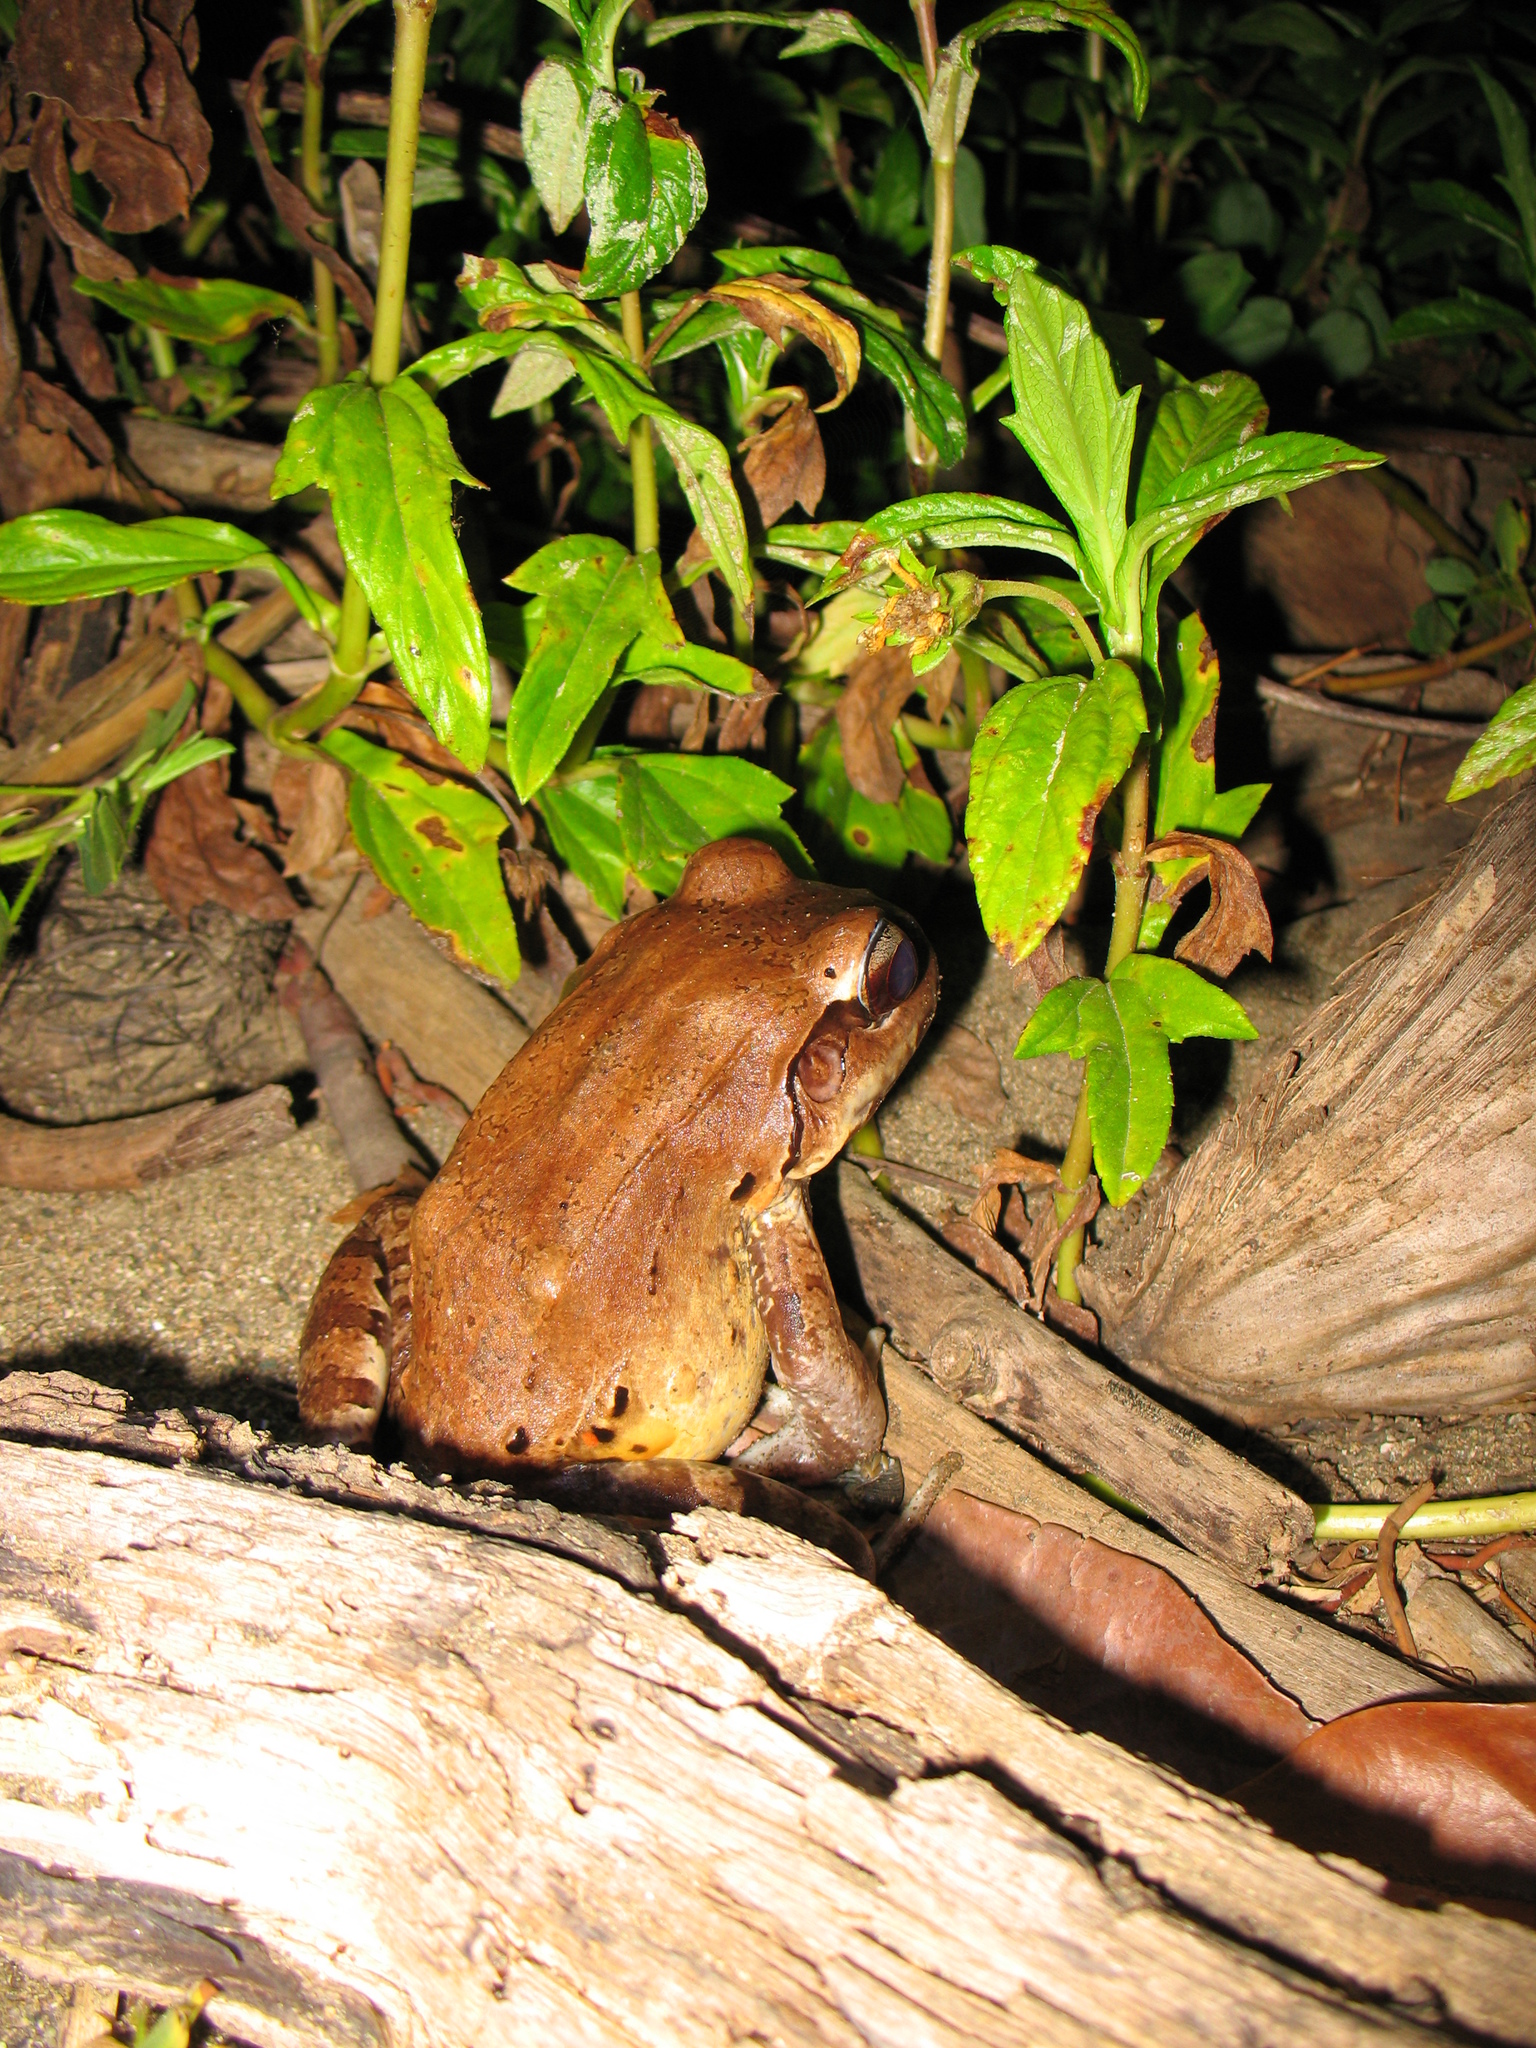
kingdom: Animalia
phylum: Chordata
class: Amphibia
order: Anura
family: Bufonidae
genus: Rhinella
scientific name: Rhinella horribilis
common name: Mesoamerican cane toad
